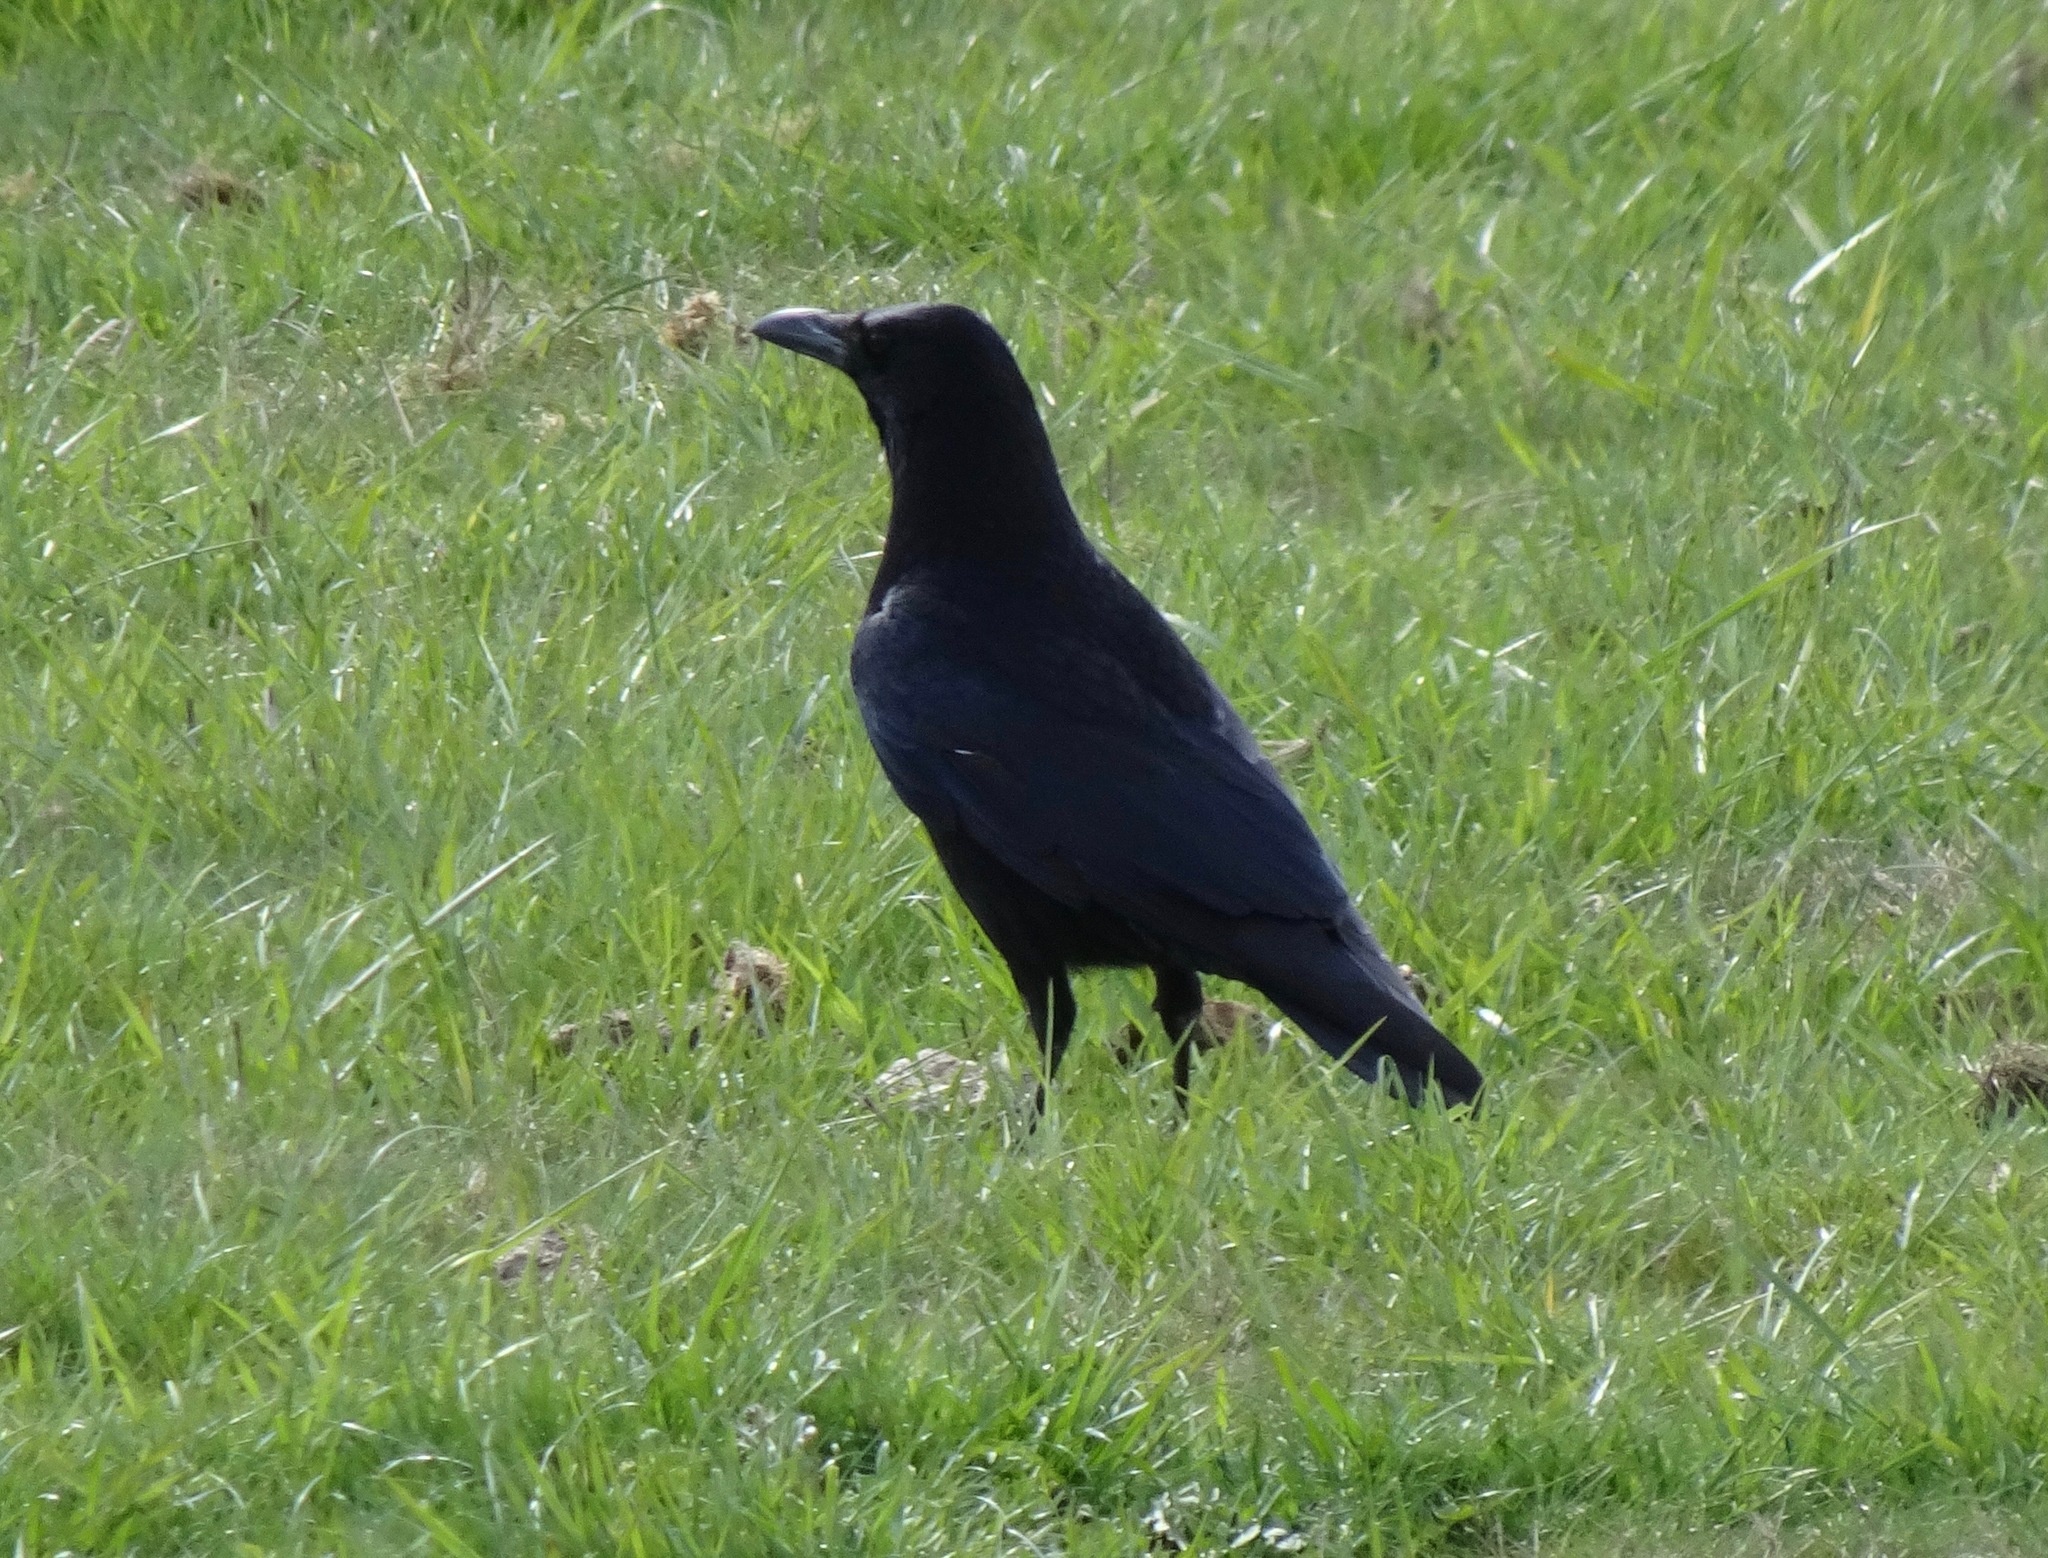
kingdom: Animalia
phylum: Chordata
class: Aves
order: Passeriformes
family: Corvidae
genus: Corvus
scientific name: Corvus corone
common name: Carrion crow
